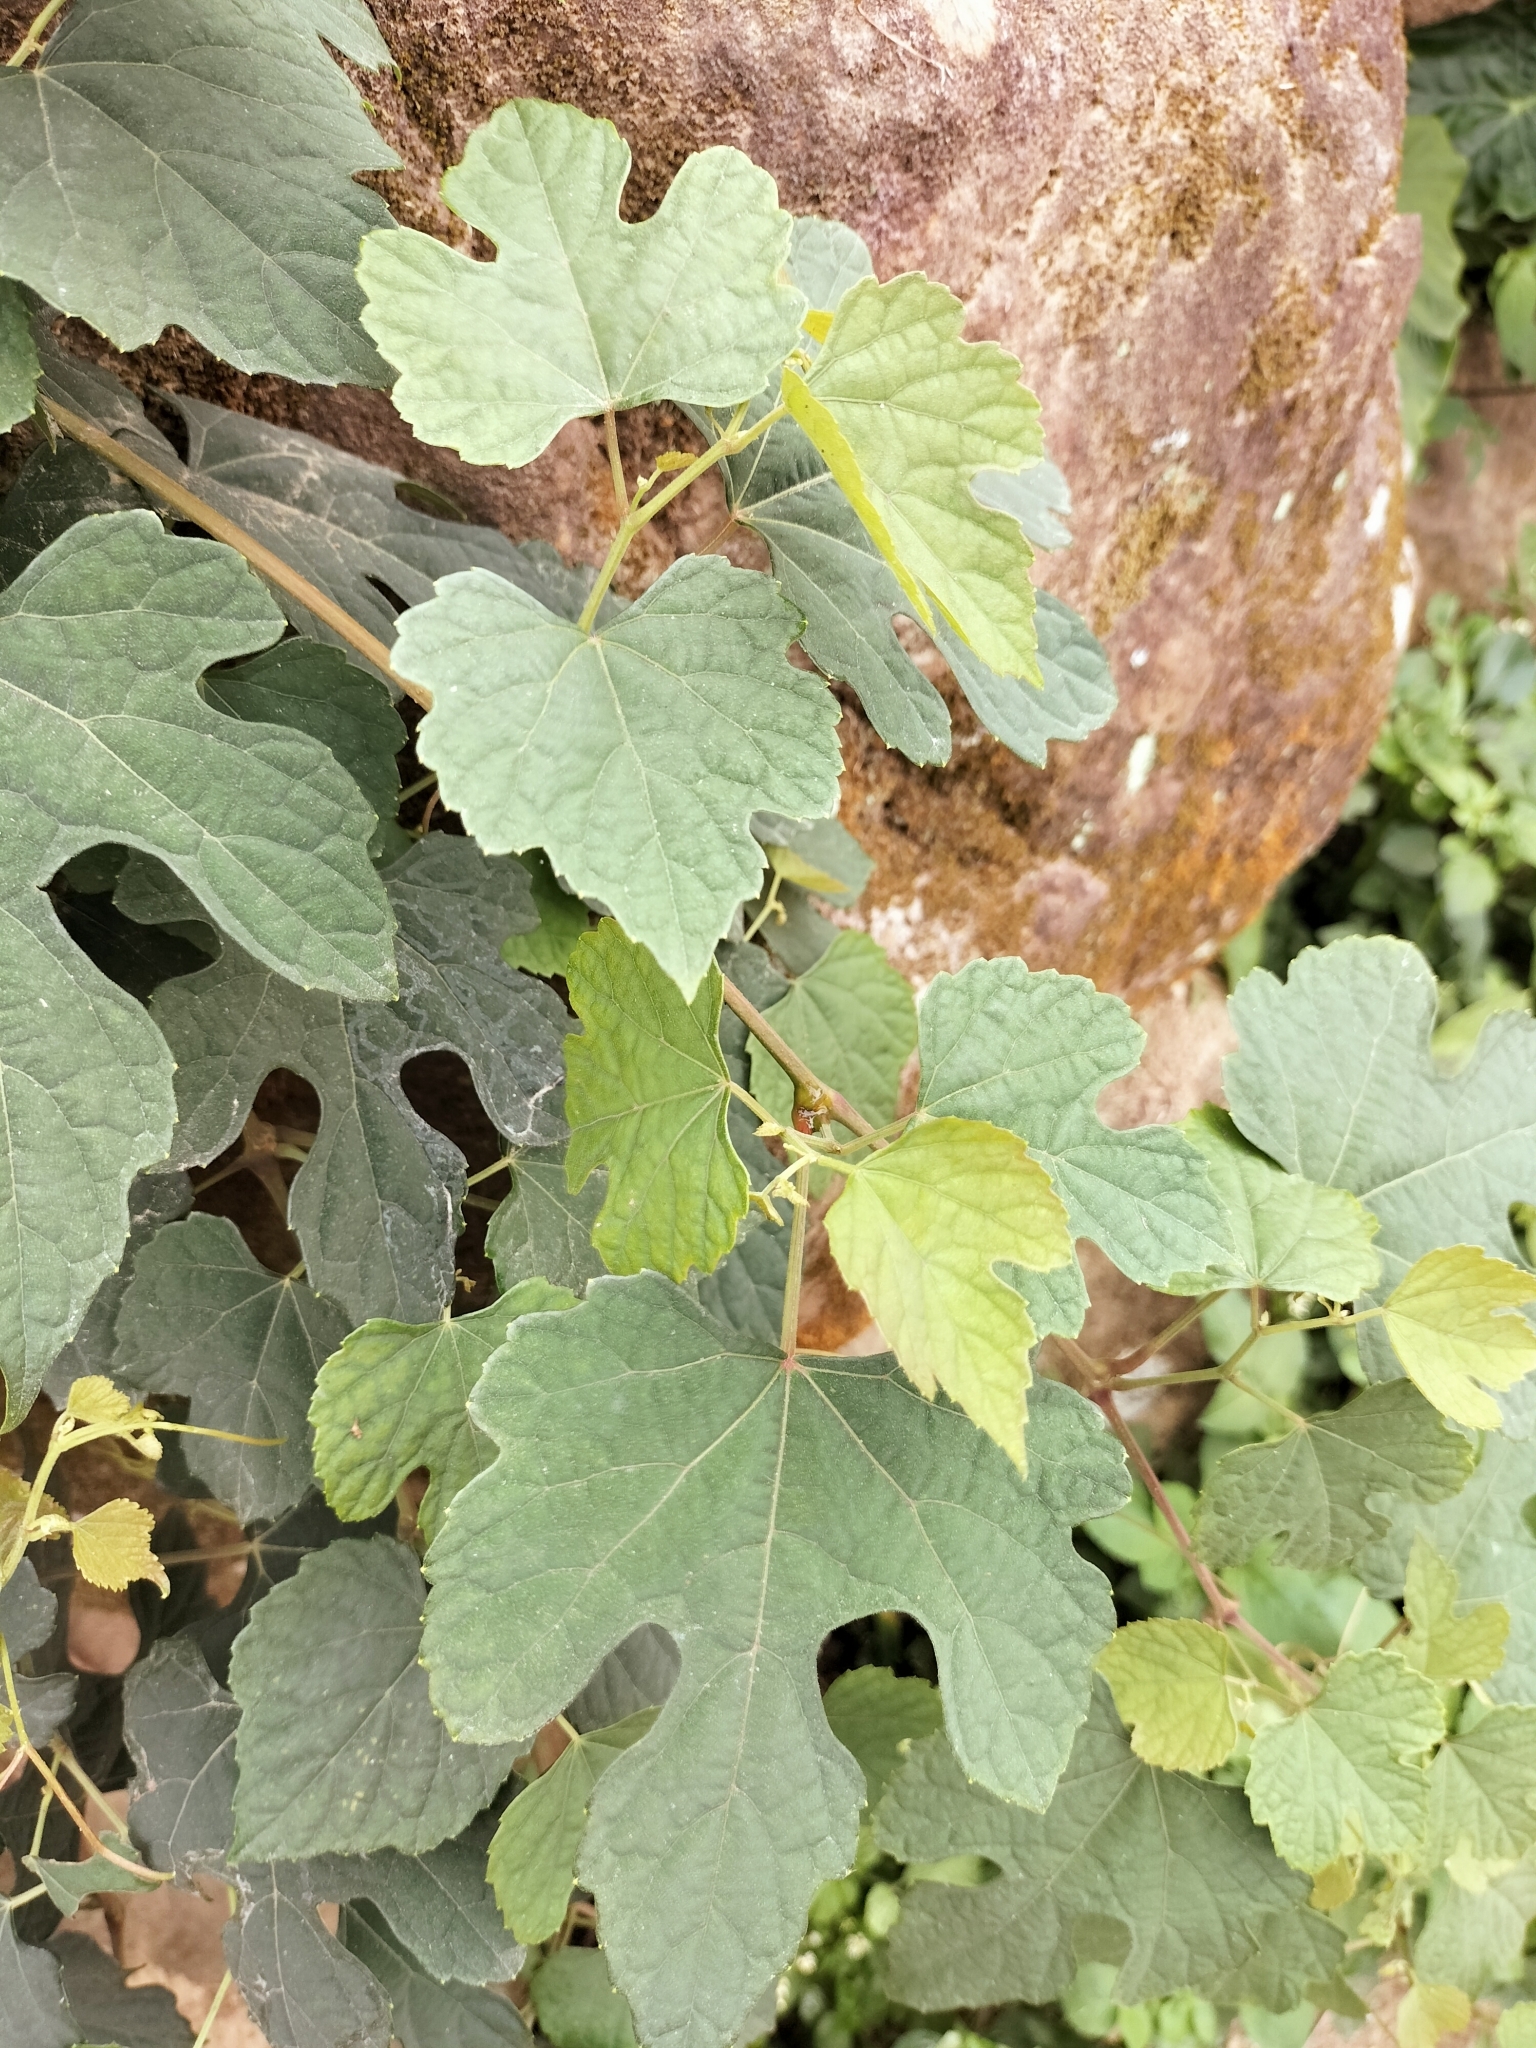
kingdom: Plantae
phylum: Tracheophyta
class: Magnoliopsida
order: Vitales
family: Vitaceae
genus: Ampelopsis
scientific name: Ampelopsis glandulosa
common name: Amur peppervine
